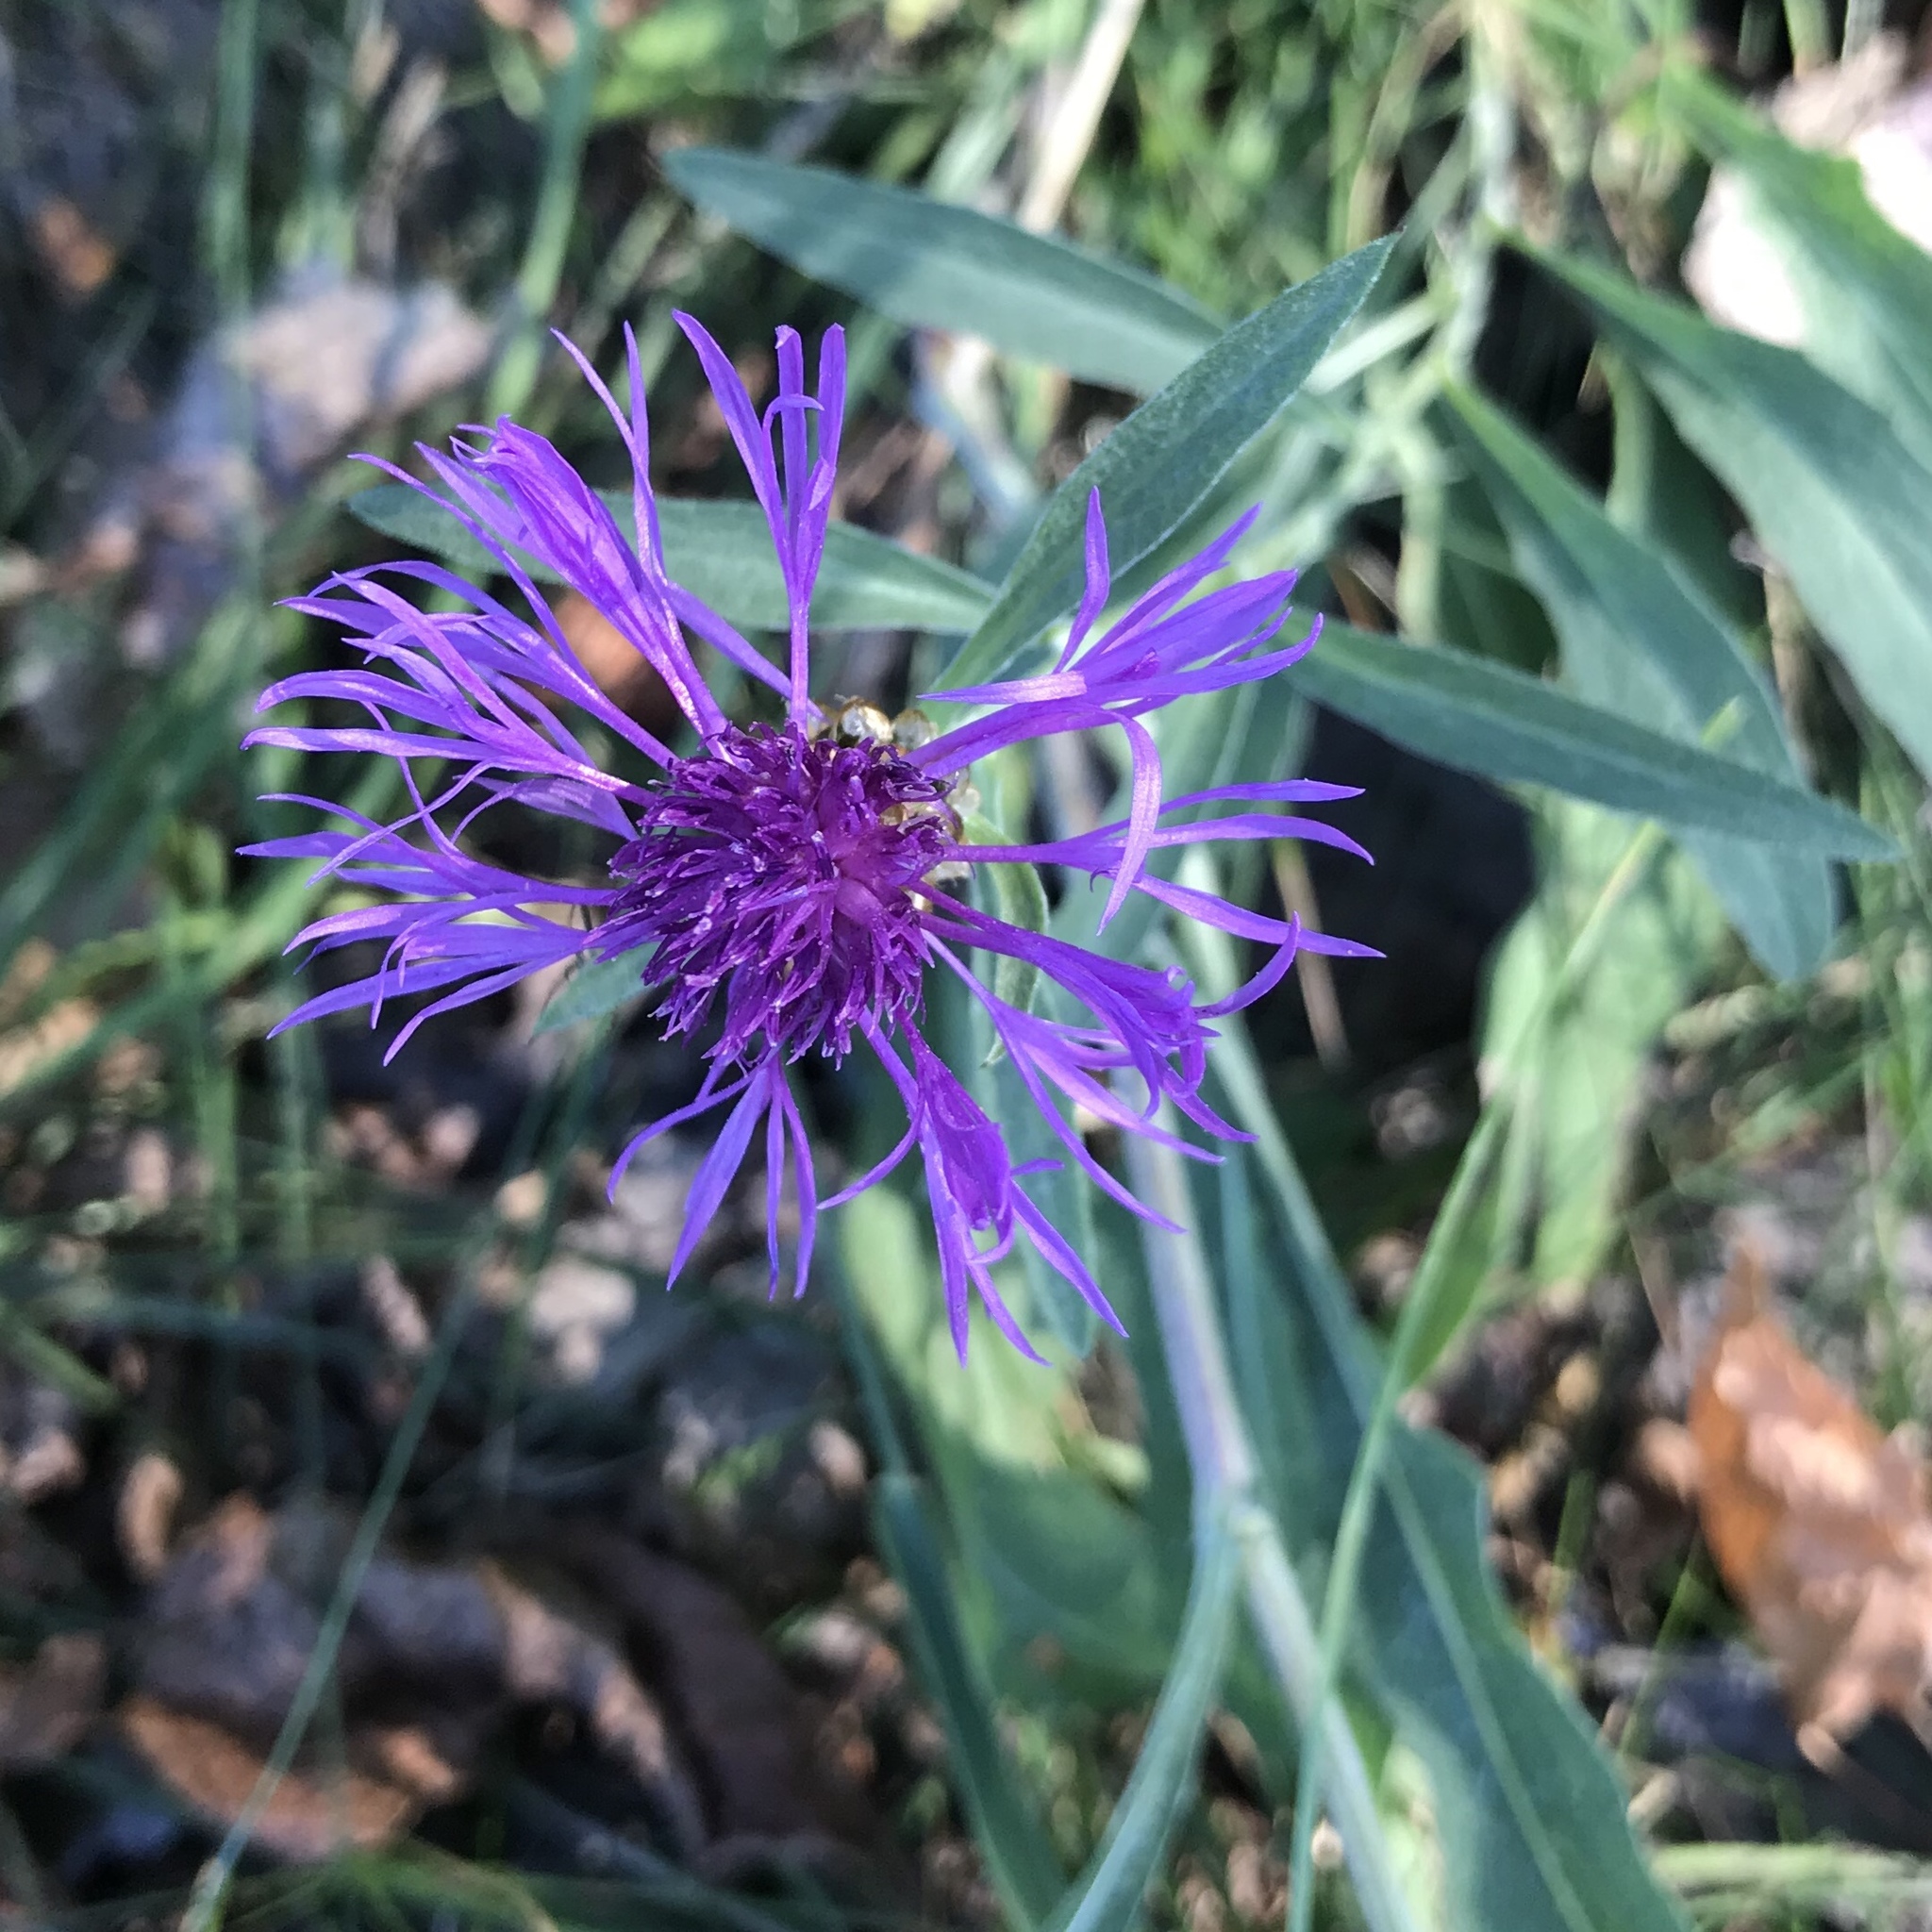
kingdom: Plantae
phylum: Tracheophyta
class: Magnoliopsida
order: Asterales
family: Asteraceae
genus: Centaurea
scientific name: Centaurea jacea
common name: Brown knapweed
